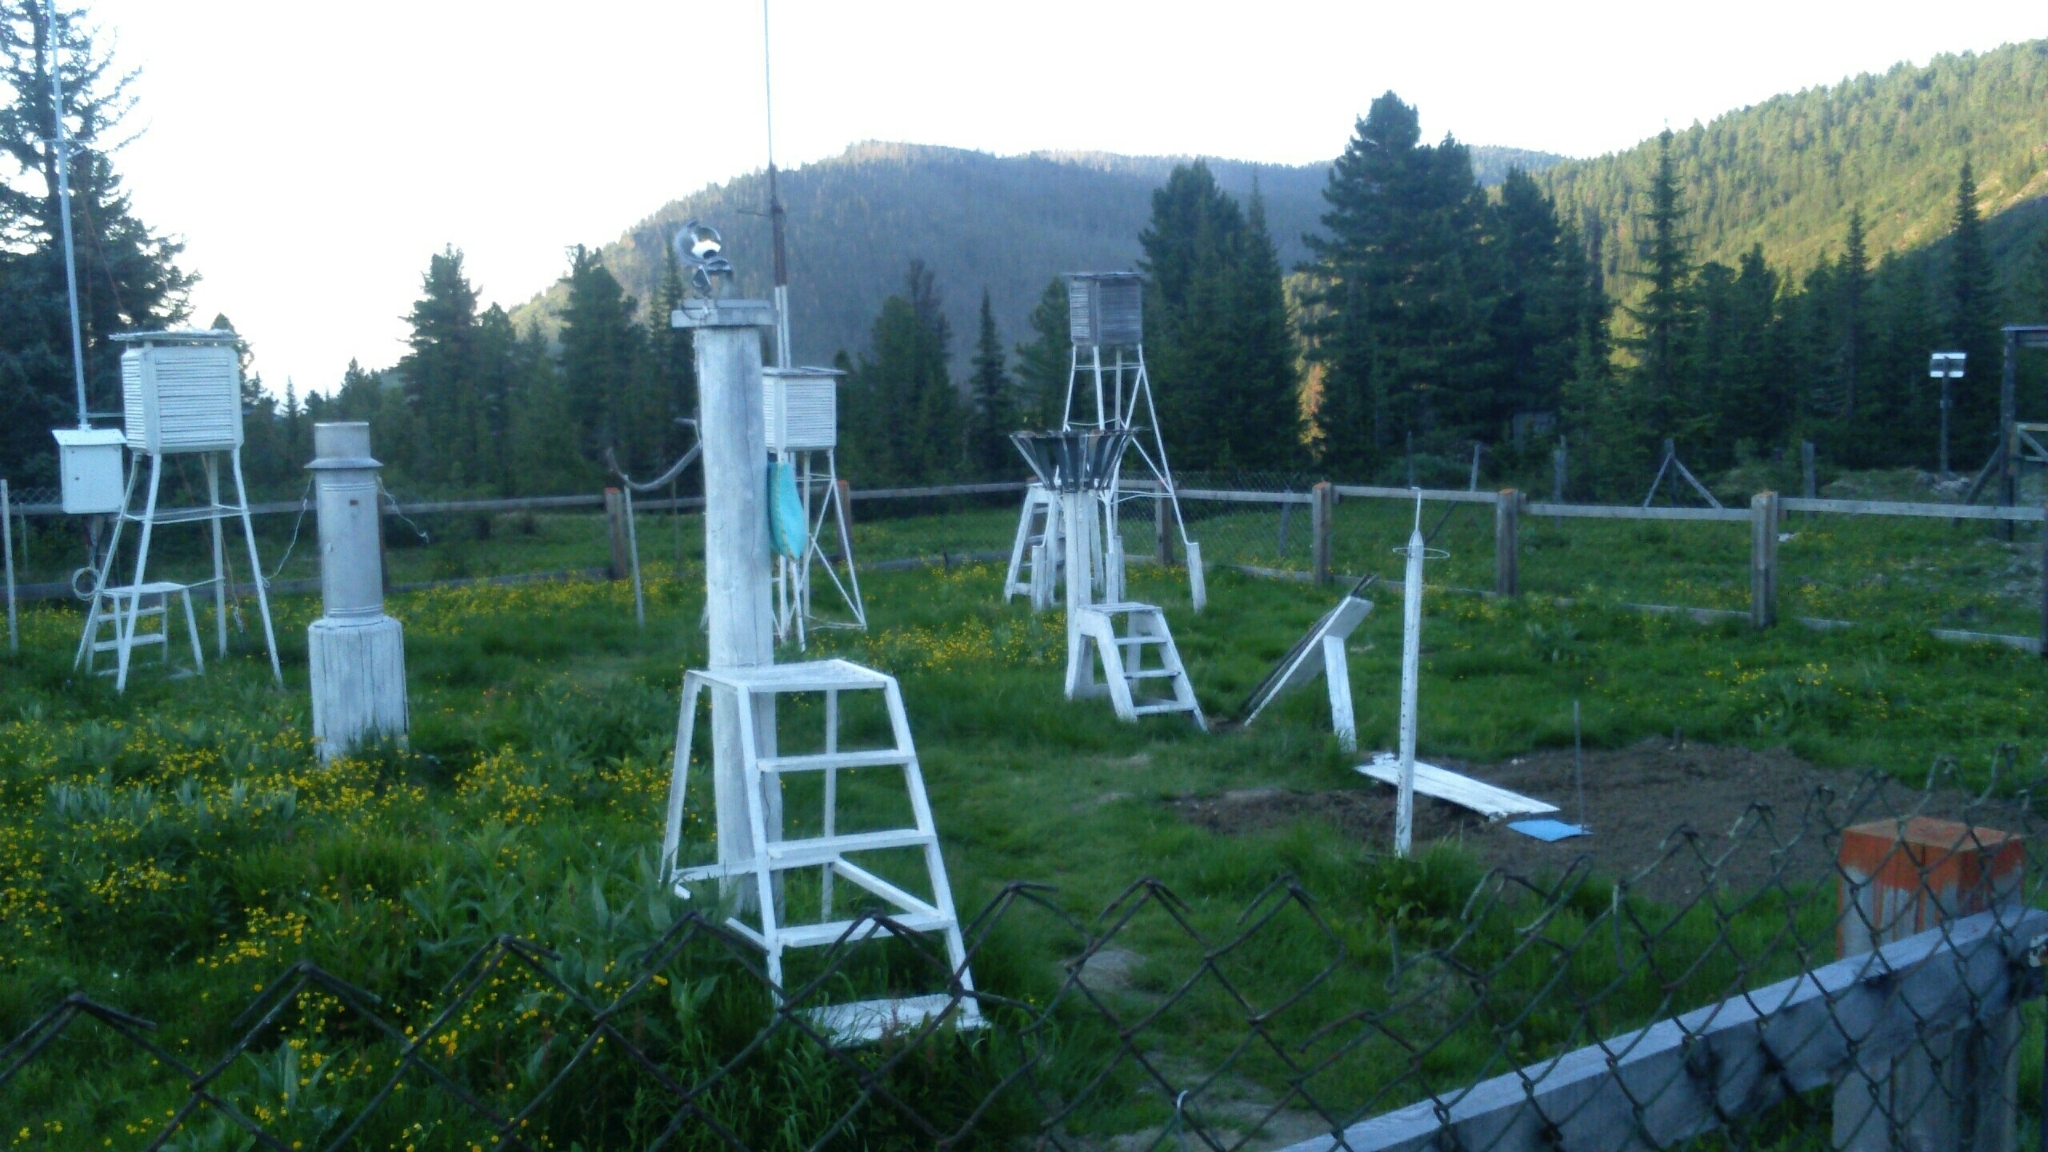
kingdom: Plantae
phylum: Tracheophyta
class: Pinopsida
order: Pinales
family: Pinaceae
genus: Picea
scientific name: Picea obovata
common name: Siberian spruce
